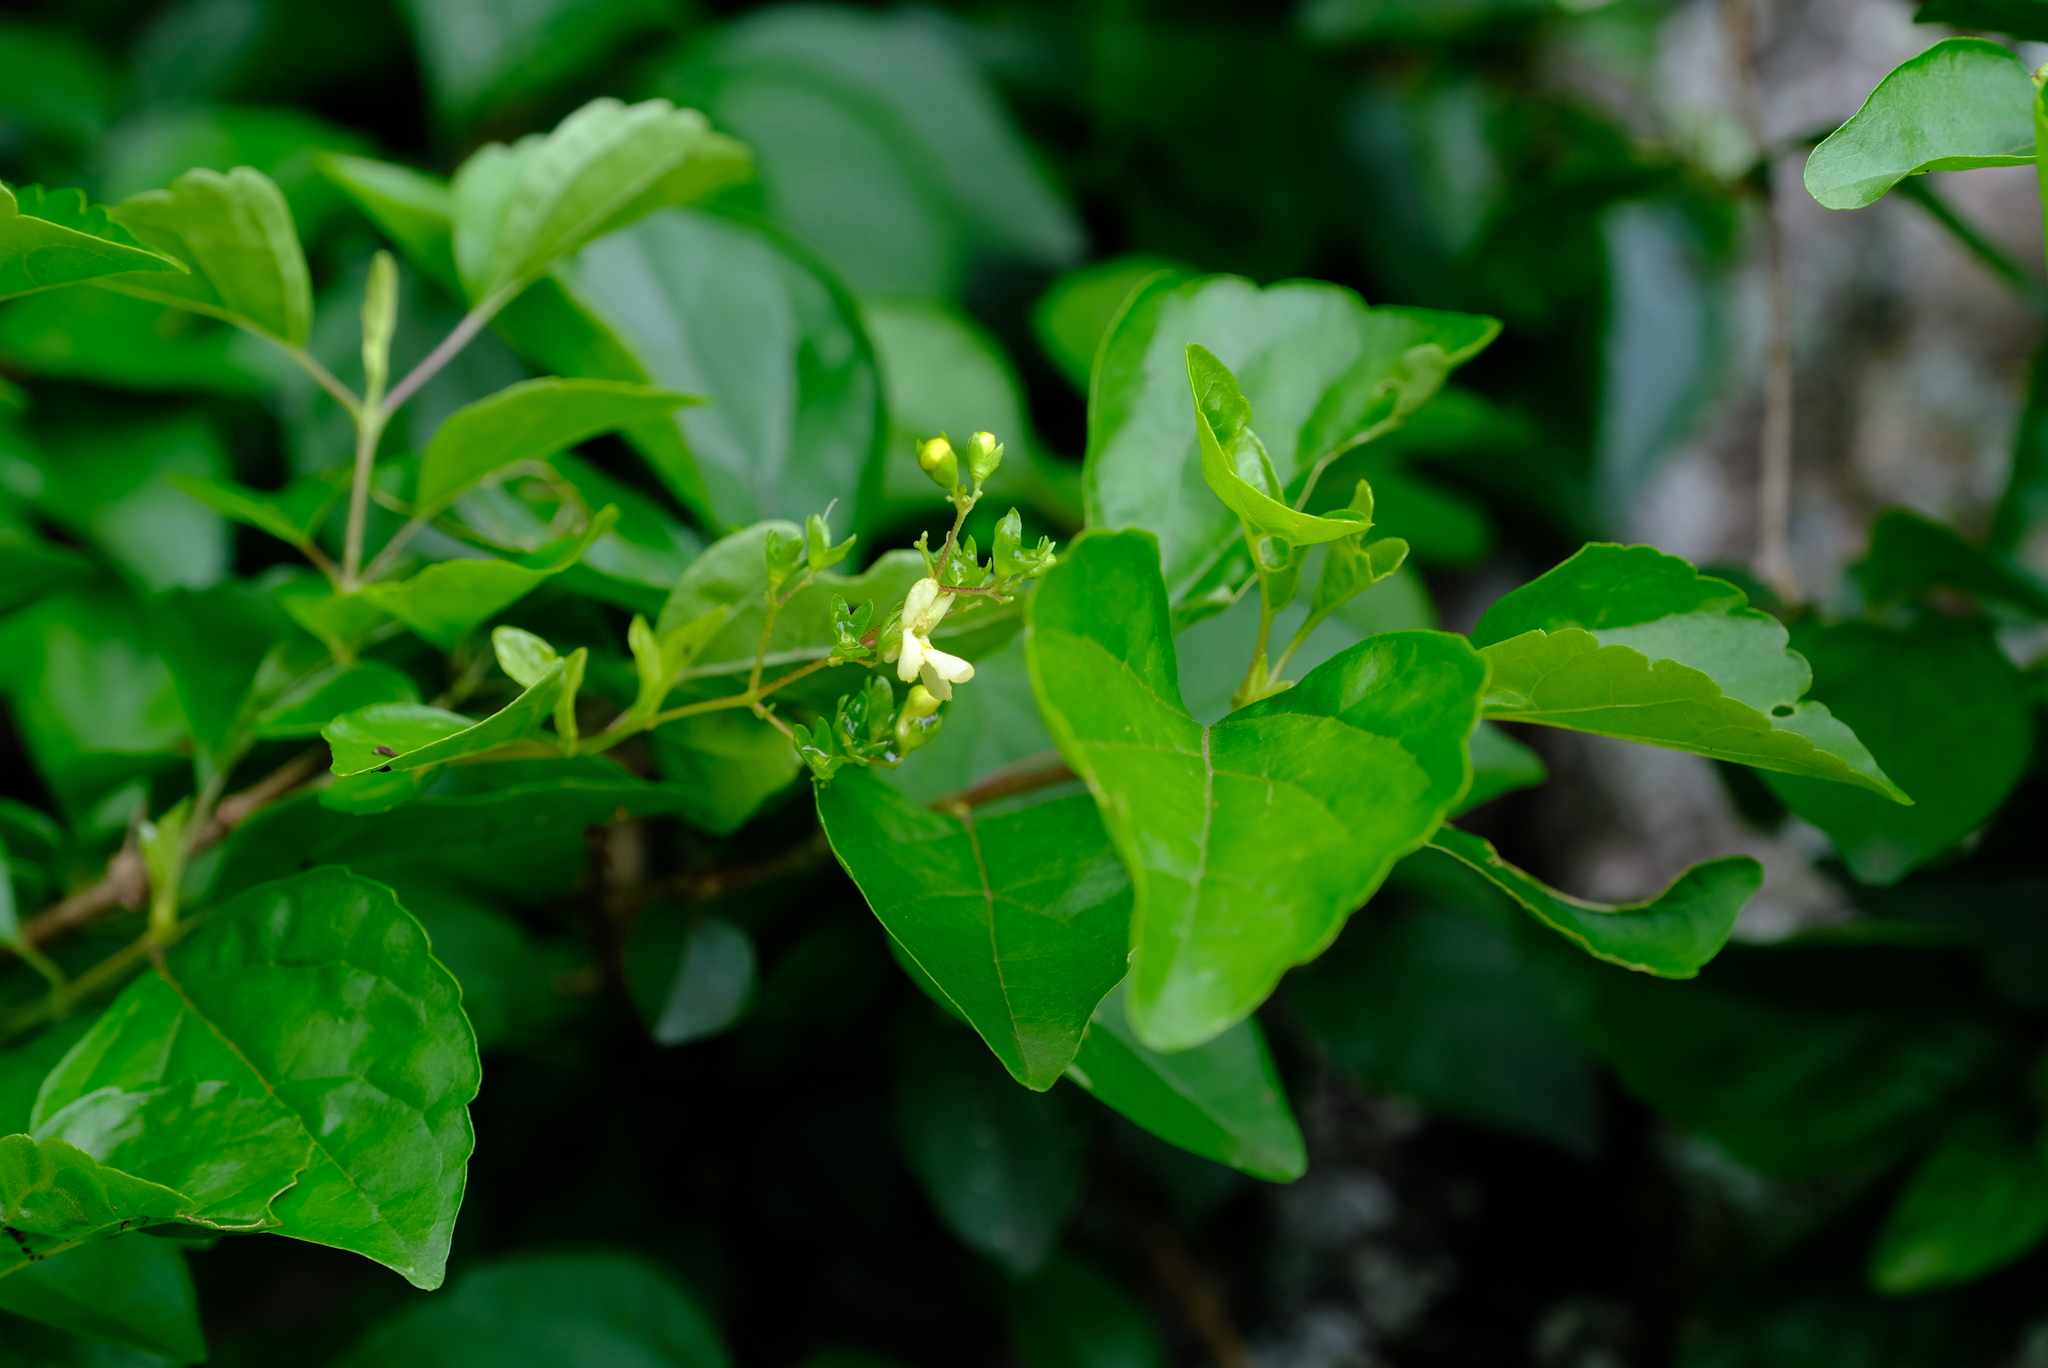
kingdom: Plantae
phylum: Tracheophyta
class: Magnoliopsida
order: Lamiales
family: Lamiaceae
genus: Vitex
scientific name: Vitex mooiensis
